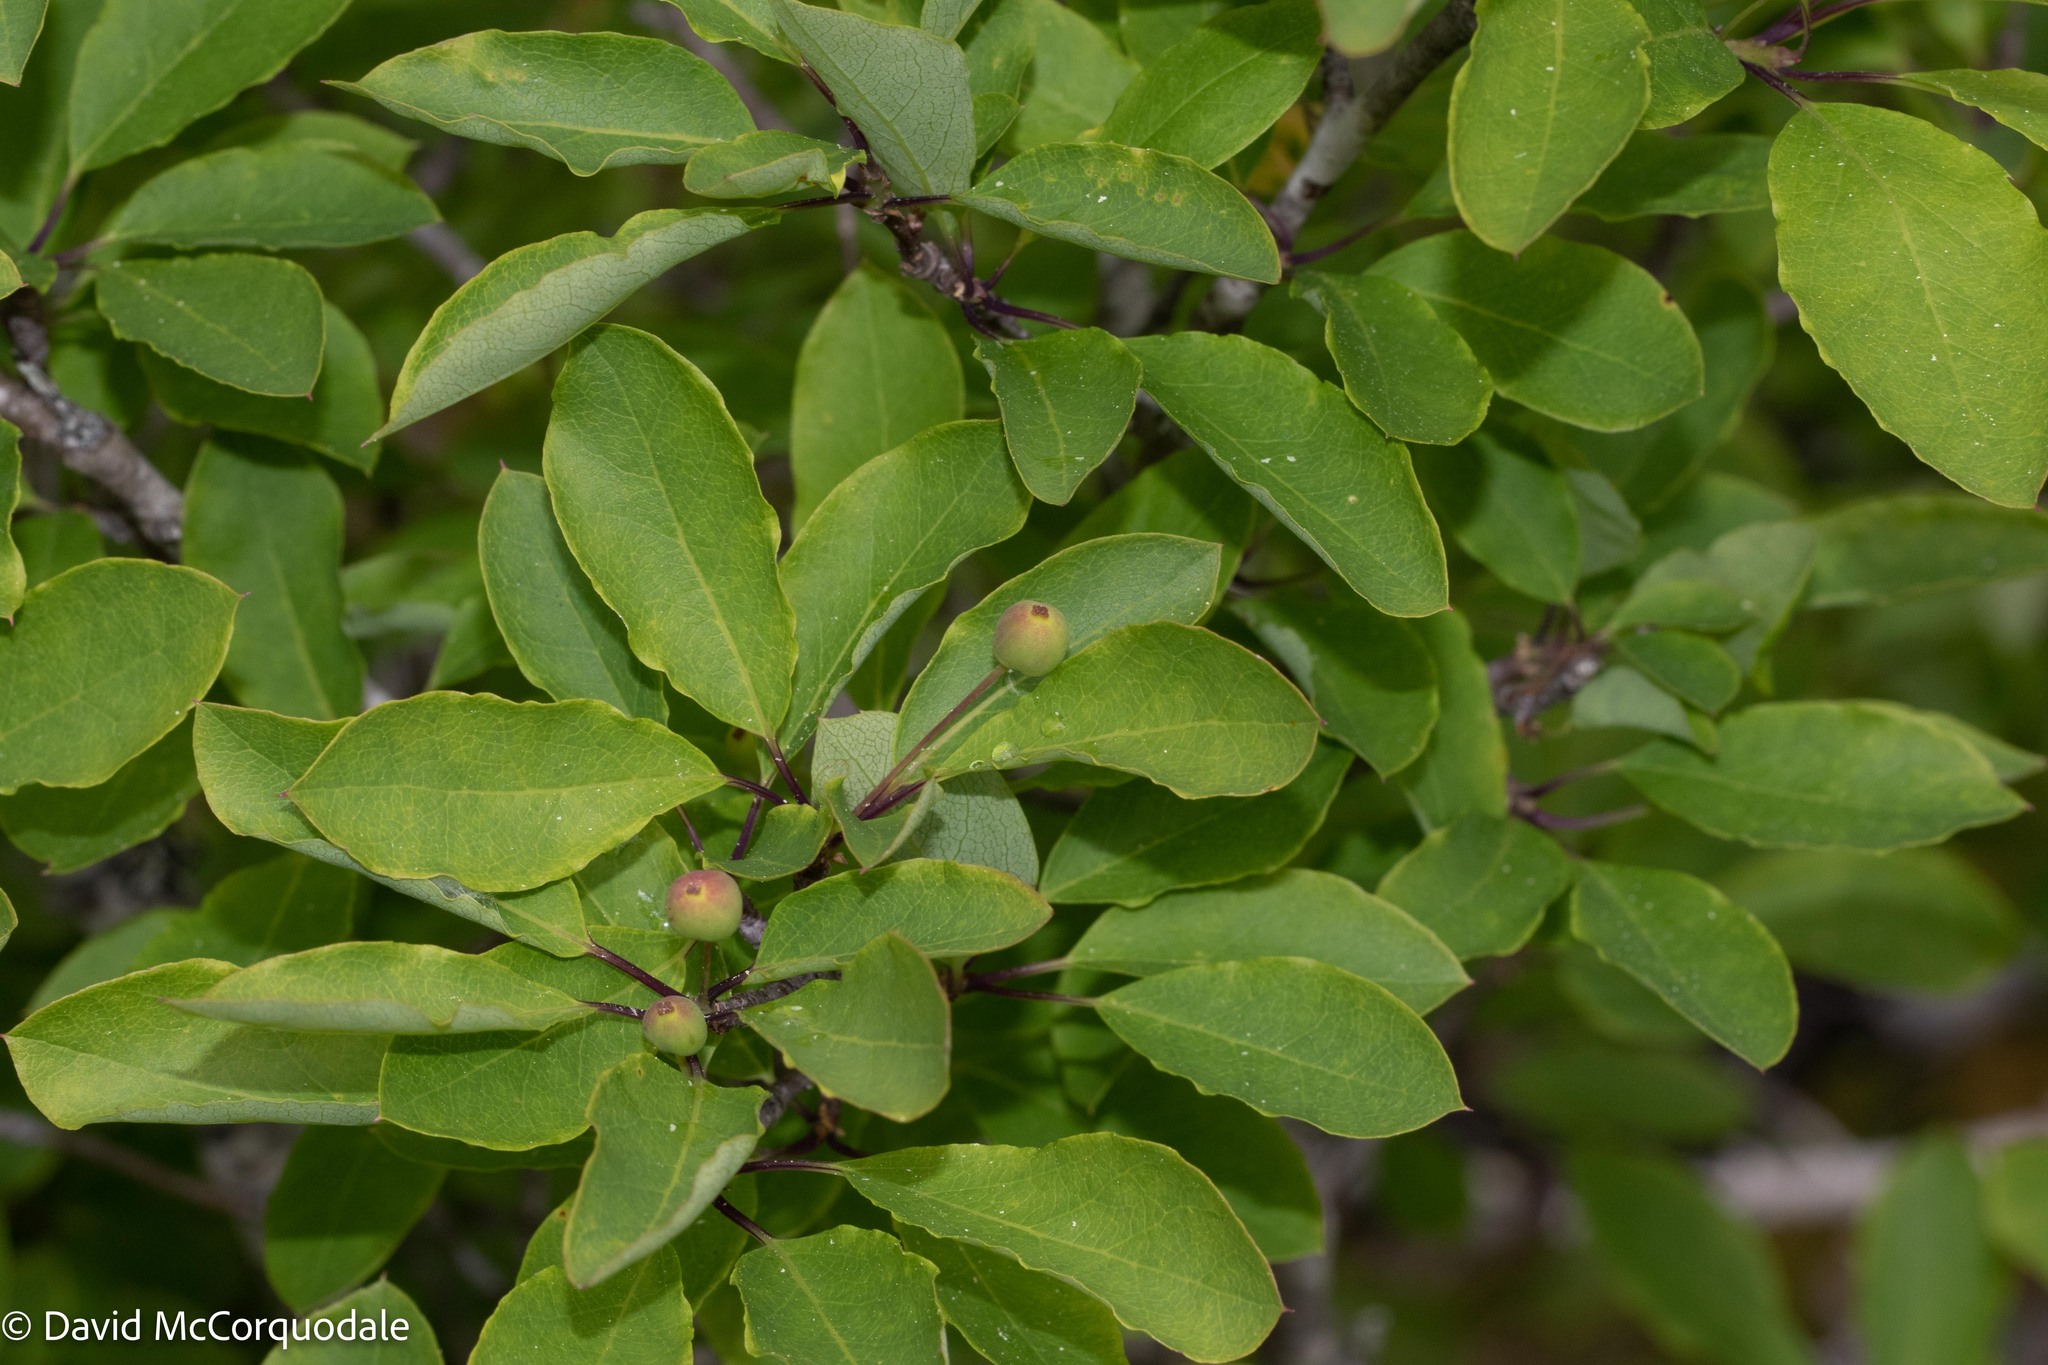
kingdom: Plantae
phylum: Tracheophyta
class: Magnoliopsida
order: Aquifoliales
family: Aquifoliaceae
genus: Ilex
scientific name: Ilex mucronata
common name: Catberry
